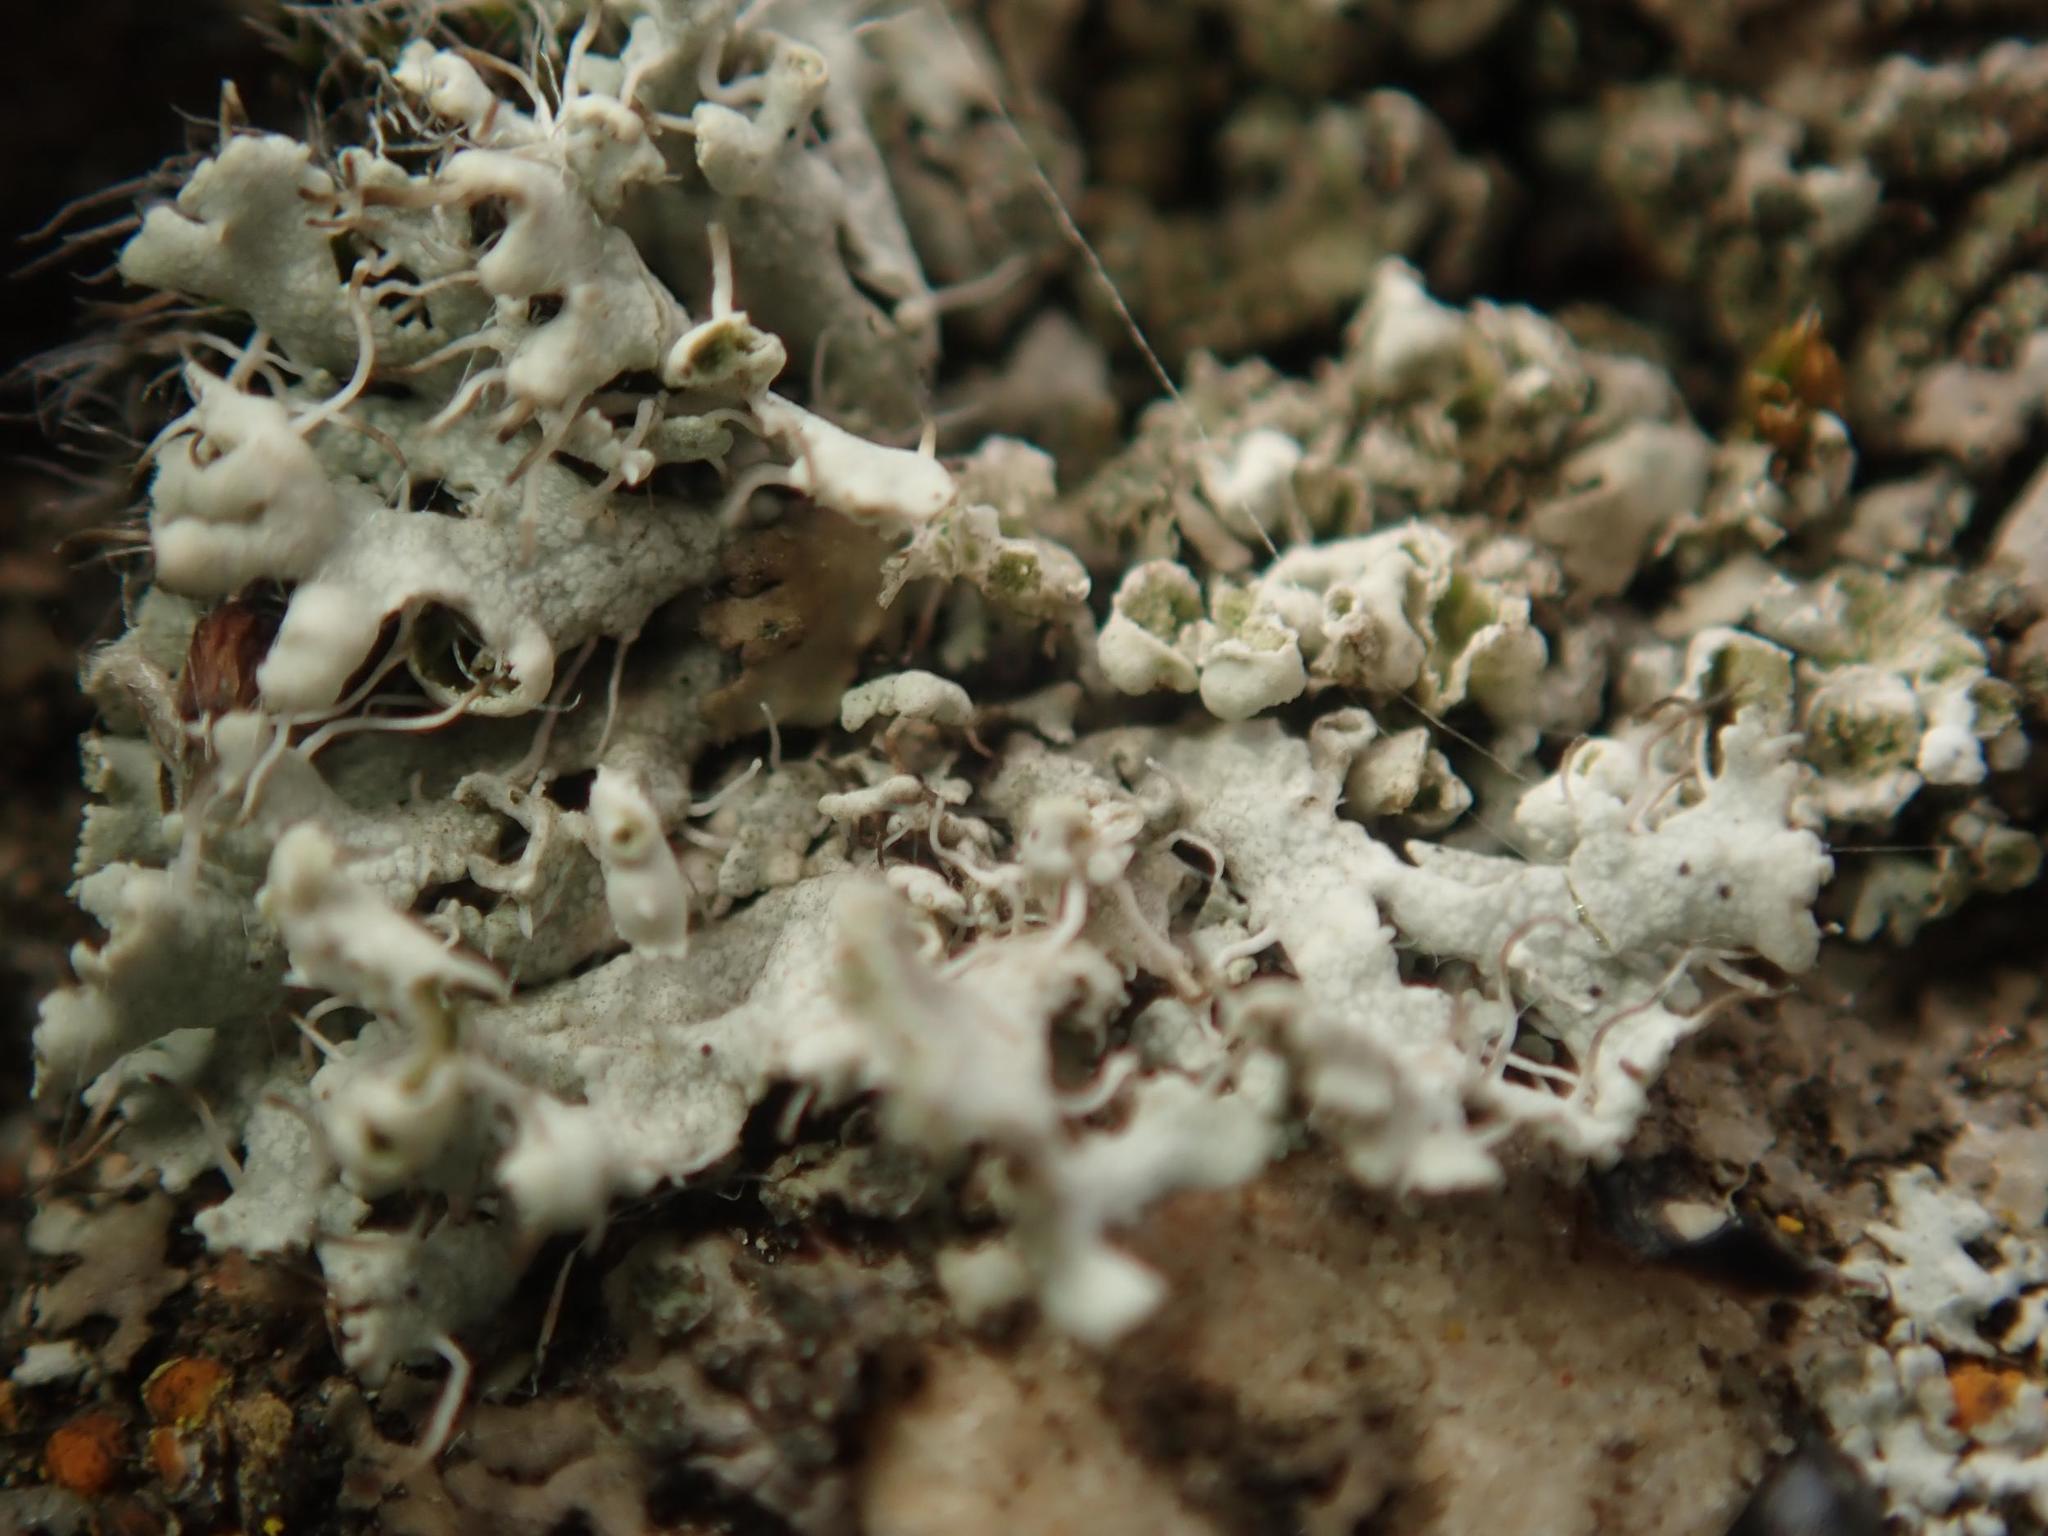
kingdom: Fungi
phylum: Ascomycota
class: Lecanoromycetes
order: Caliciales
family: Physciaceae
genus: Physcia
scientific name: Physcia adscendens
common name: Hooded rosette lichen
